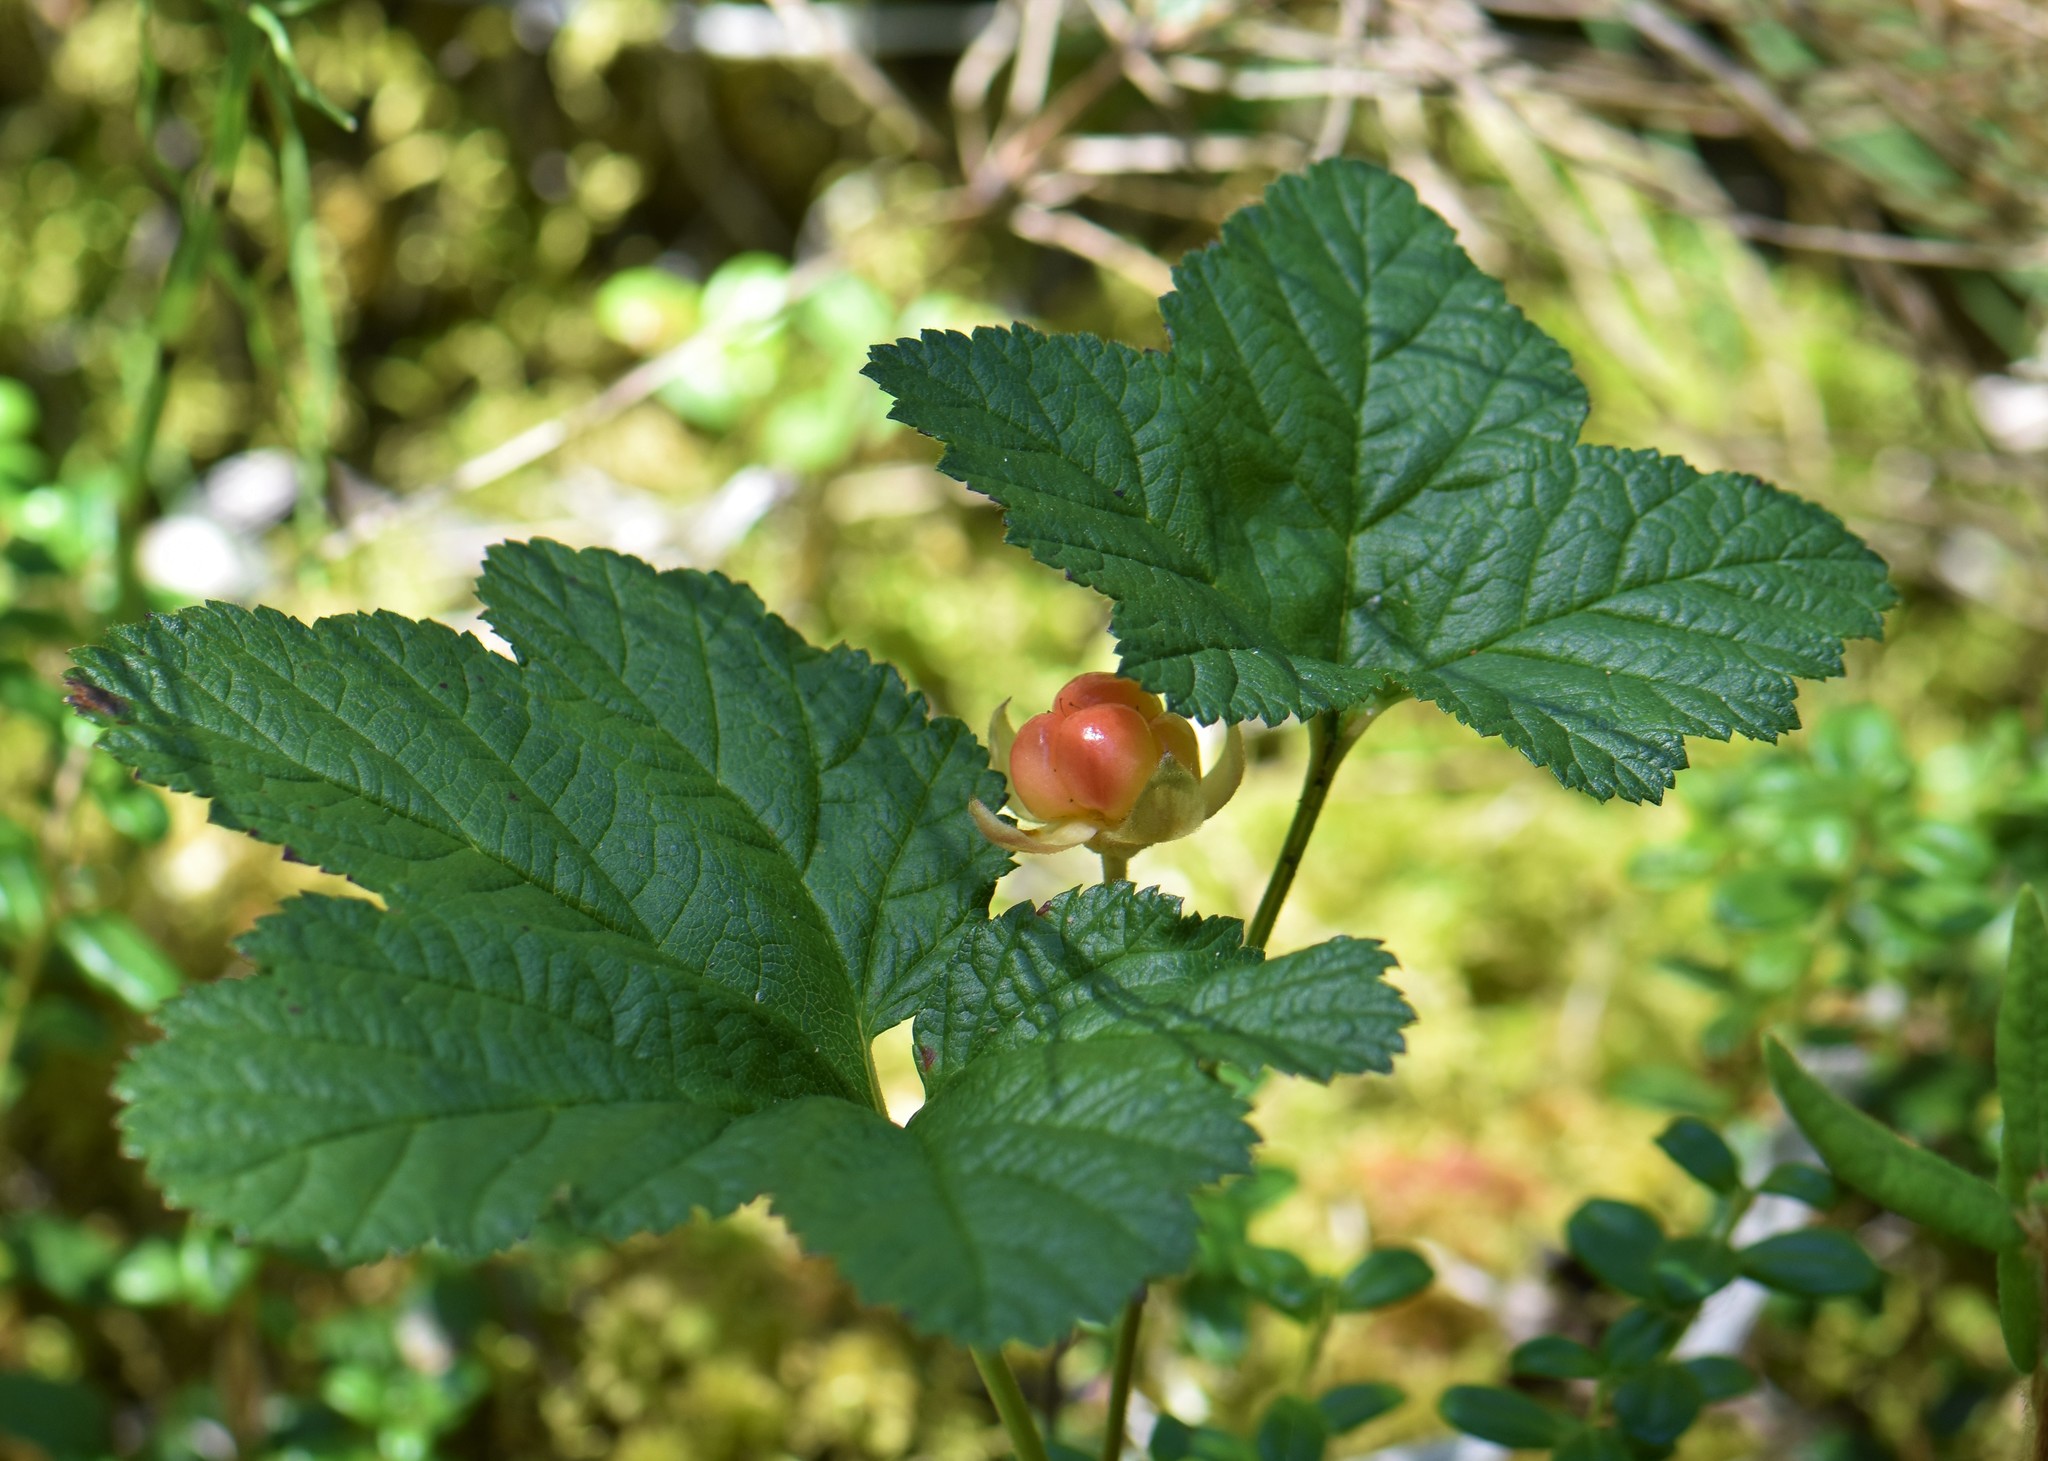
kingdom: Plantae
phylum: Tracheophyta
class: Magnoliopsida
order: Rosales
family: Rosaceae
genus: Rubus
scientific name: Rubus chamaemorus
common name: Cloudberry
